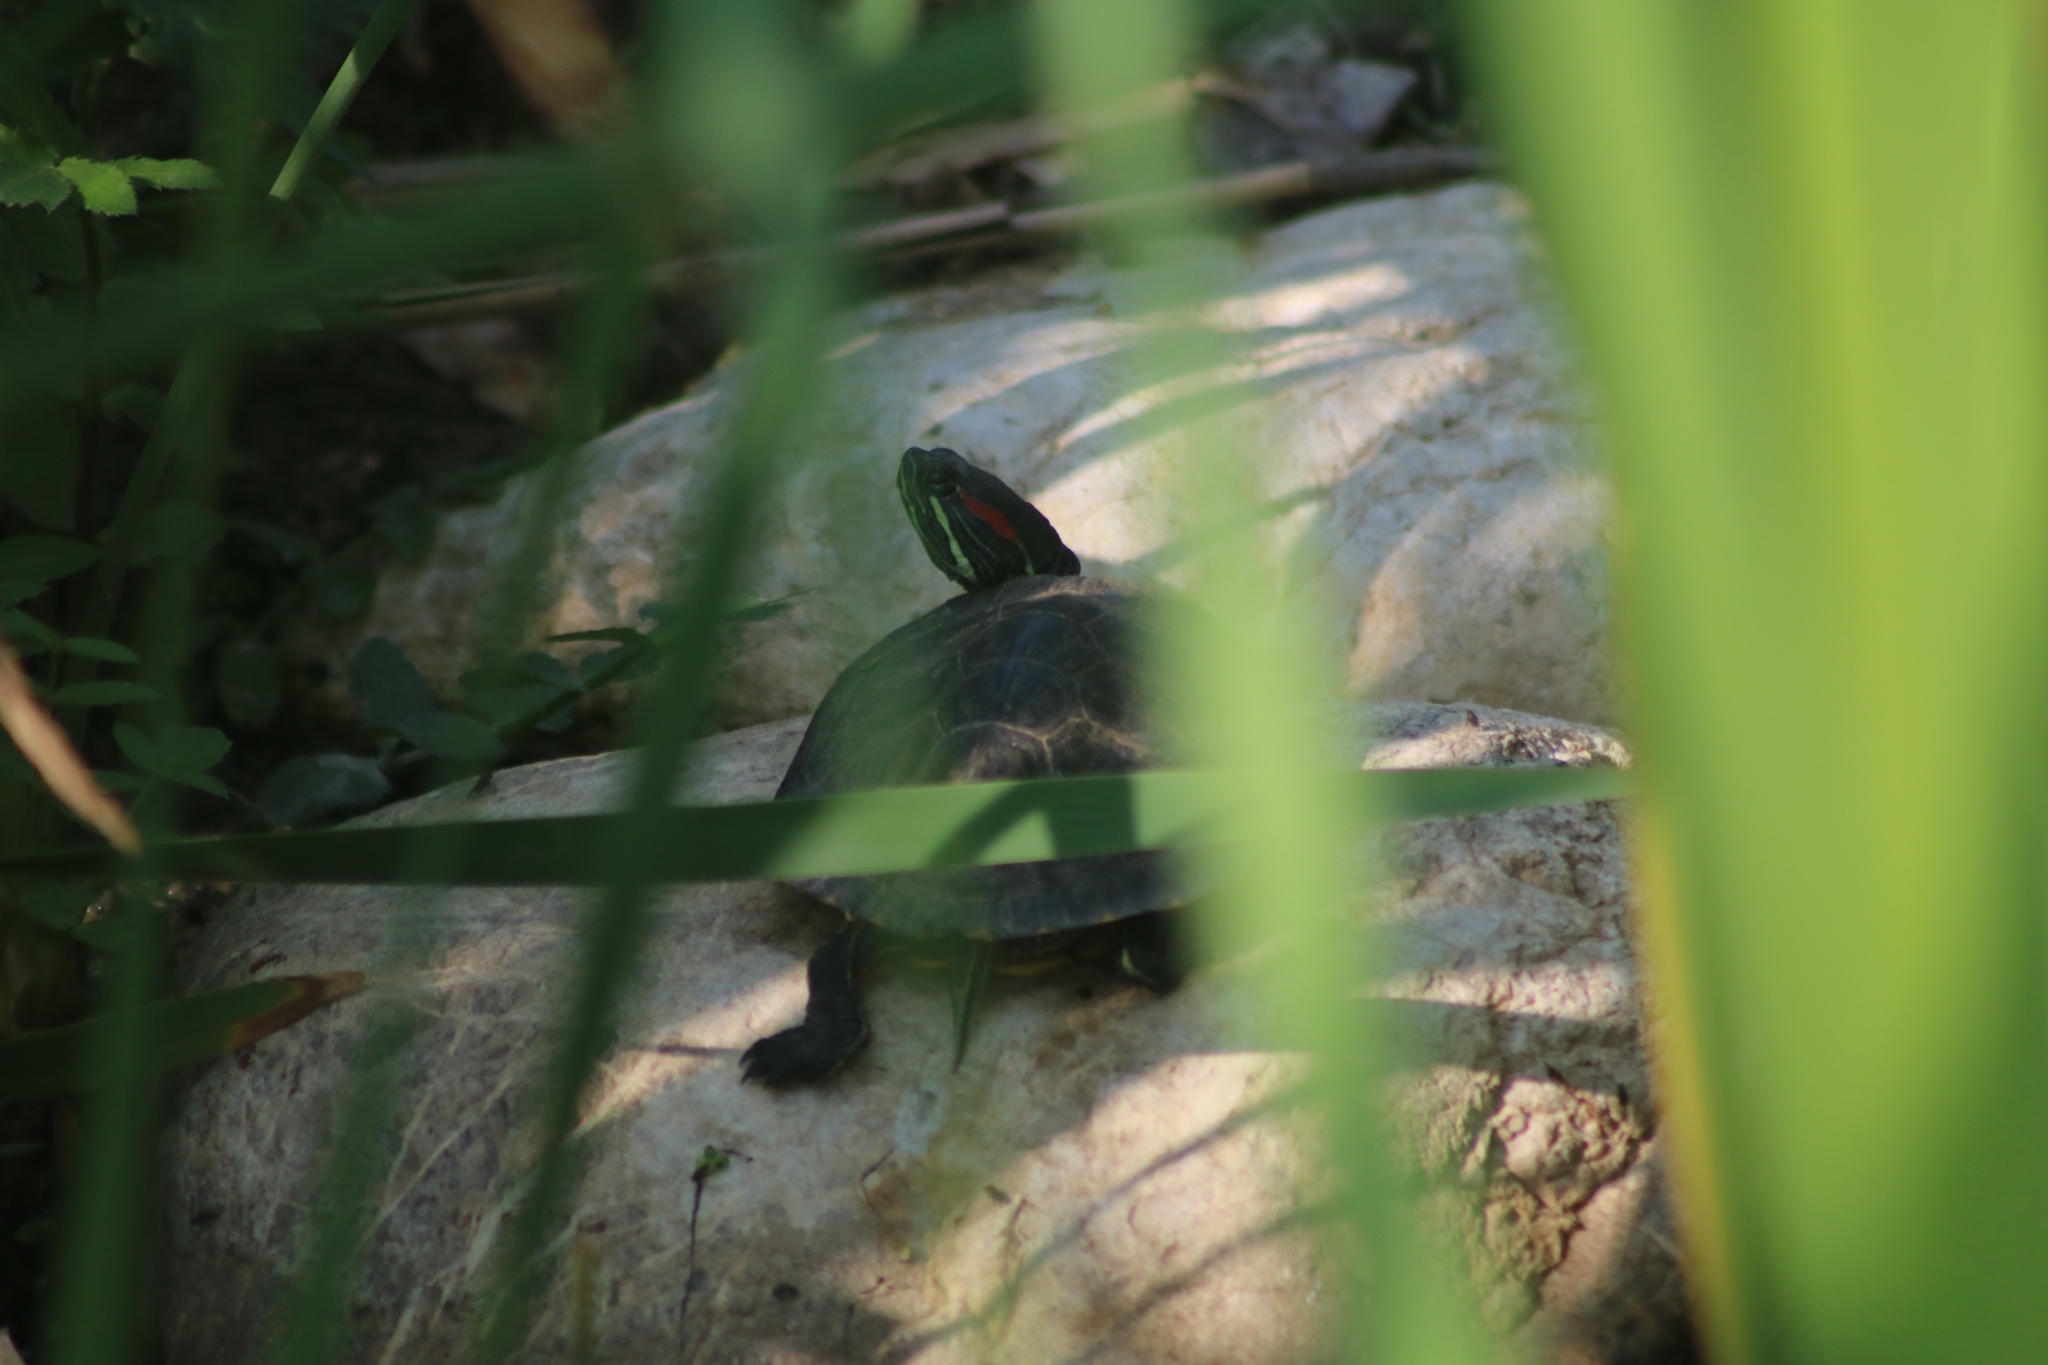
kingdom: Animalia
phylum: Chordata
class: Testudines
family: Emydidae
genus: Trachemys
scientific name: Trachemys scripta
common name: Slider
